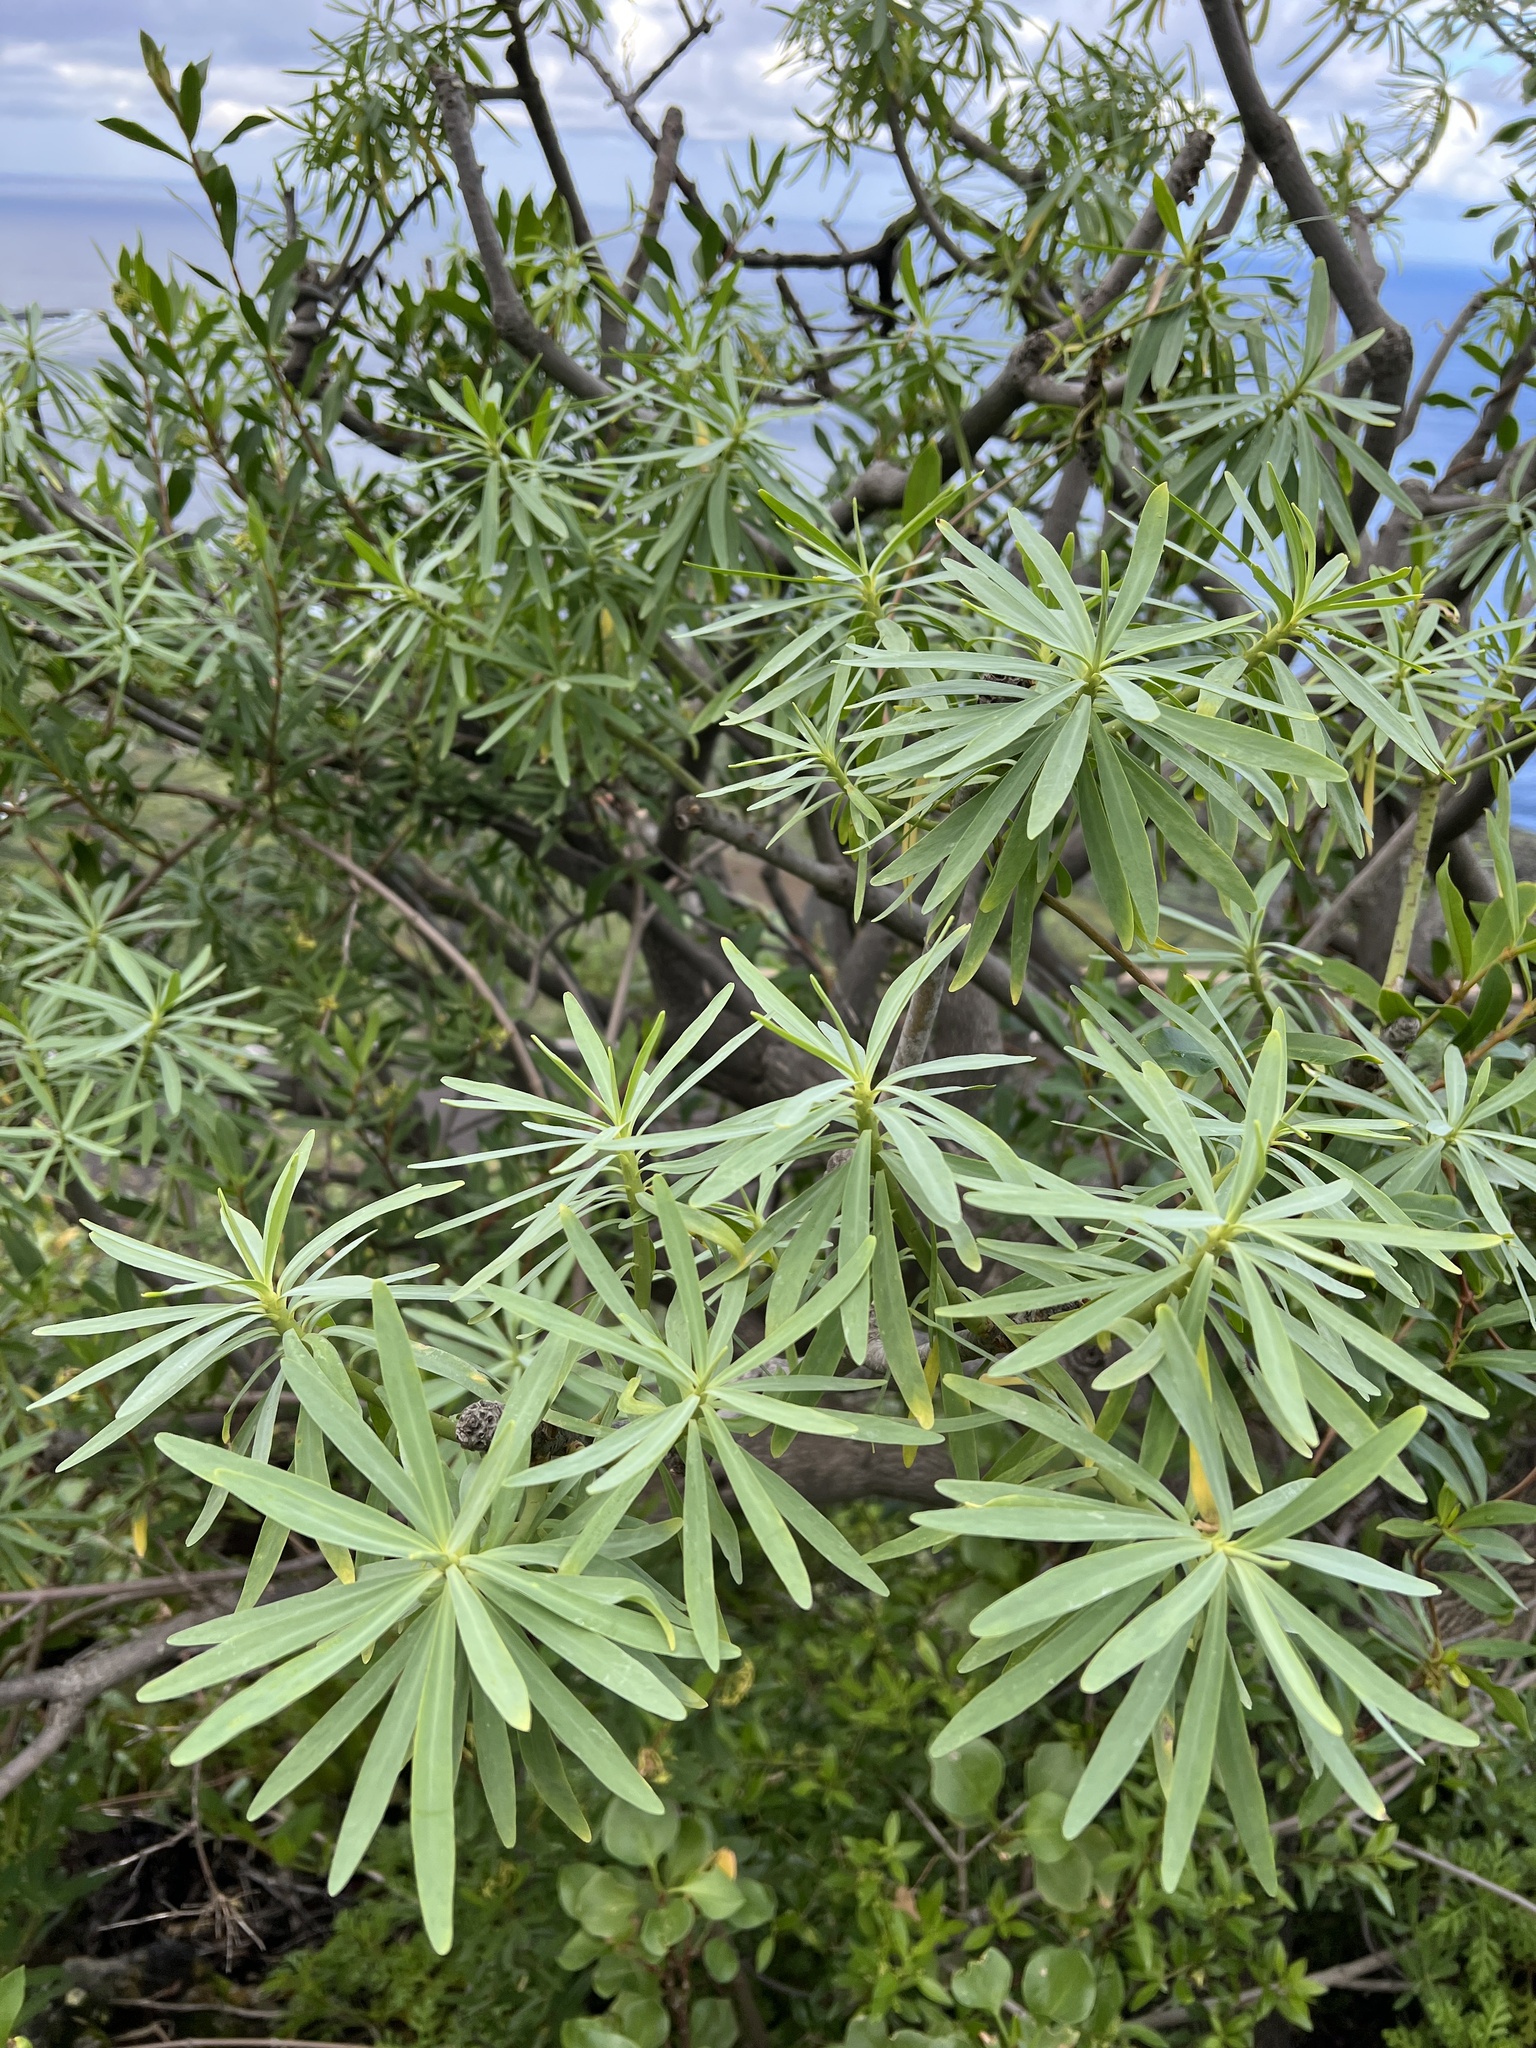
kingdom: Plantae
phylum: Tracheophyta
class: Magnoliopsida
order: Malpighiales
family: Euphorbiaceae
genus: Euphorbia
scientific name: Euphorbia lamarckii
